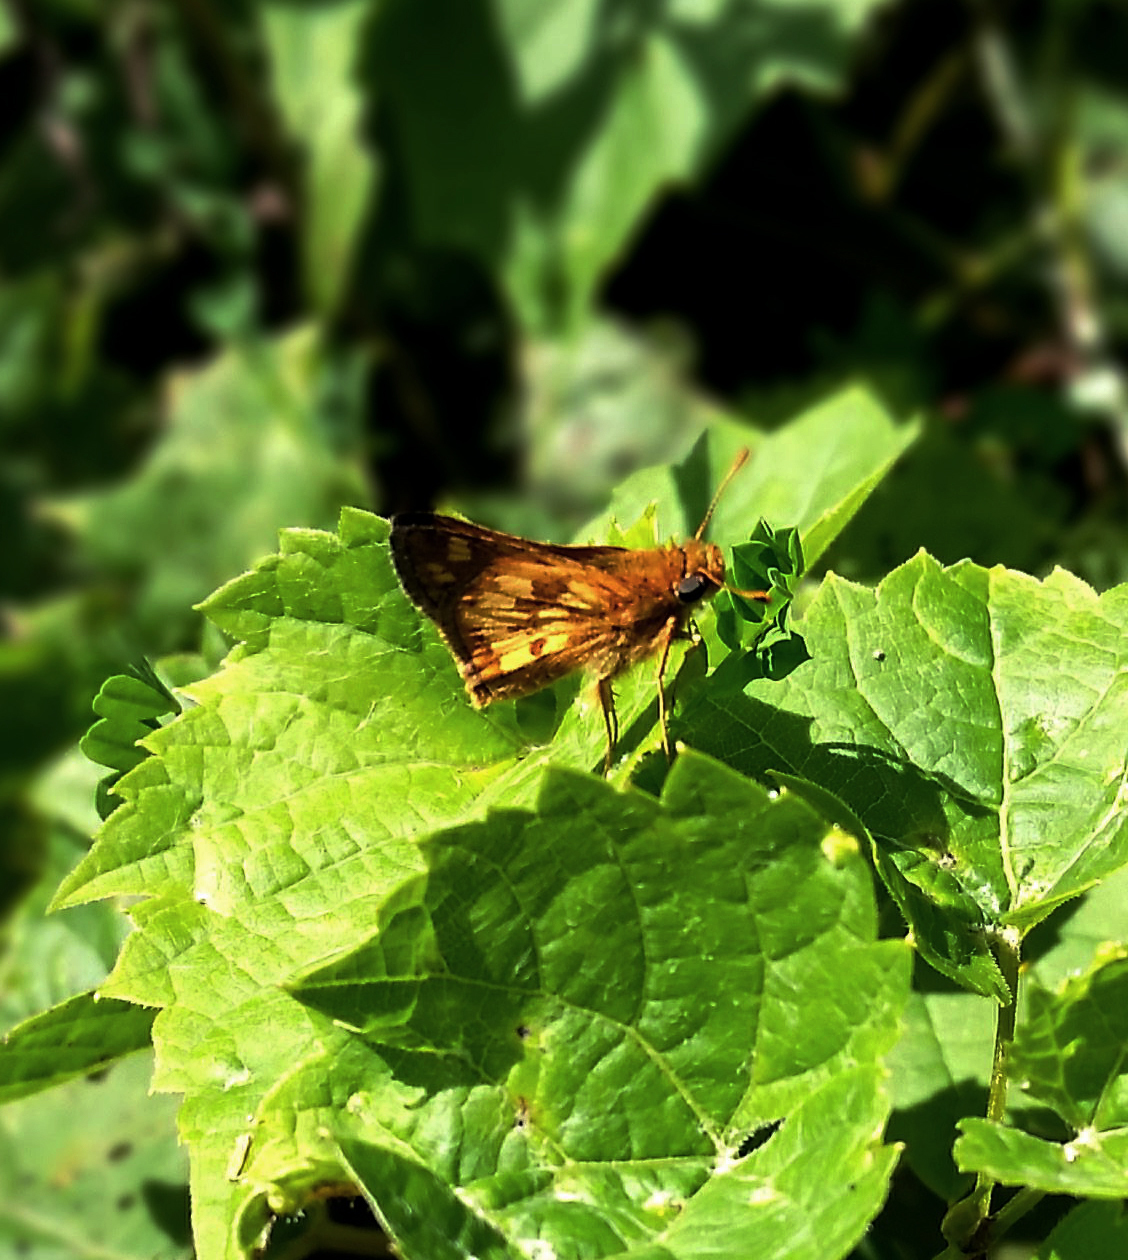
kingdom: Animalia
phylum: Arthropoda
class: Insecta
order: Lepidoptera
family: Hesperiidae
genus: Polites
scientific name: Polites coras
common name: Peck's skipper
